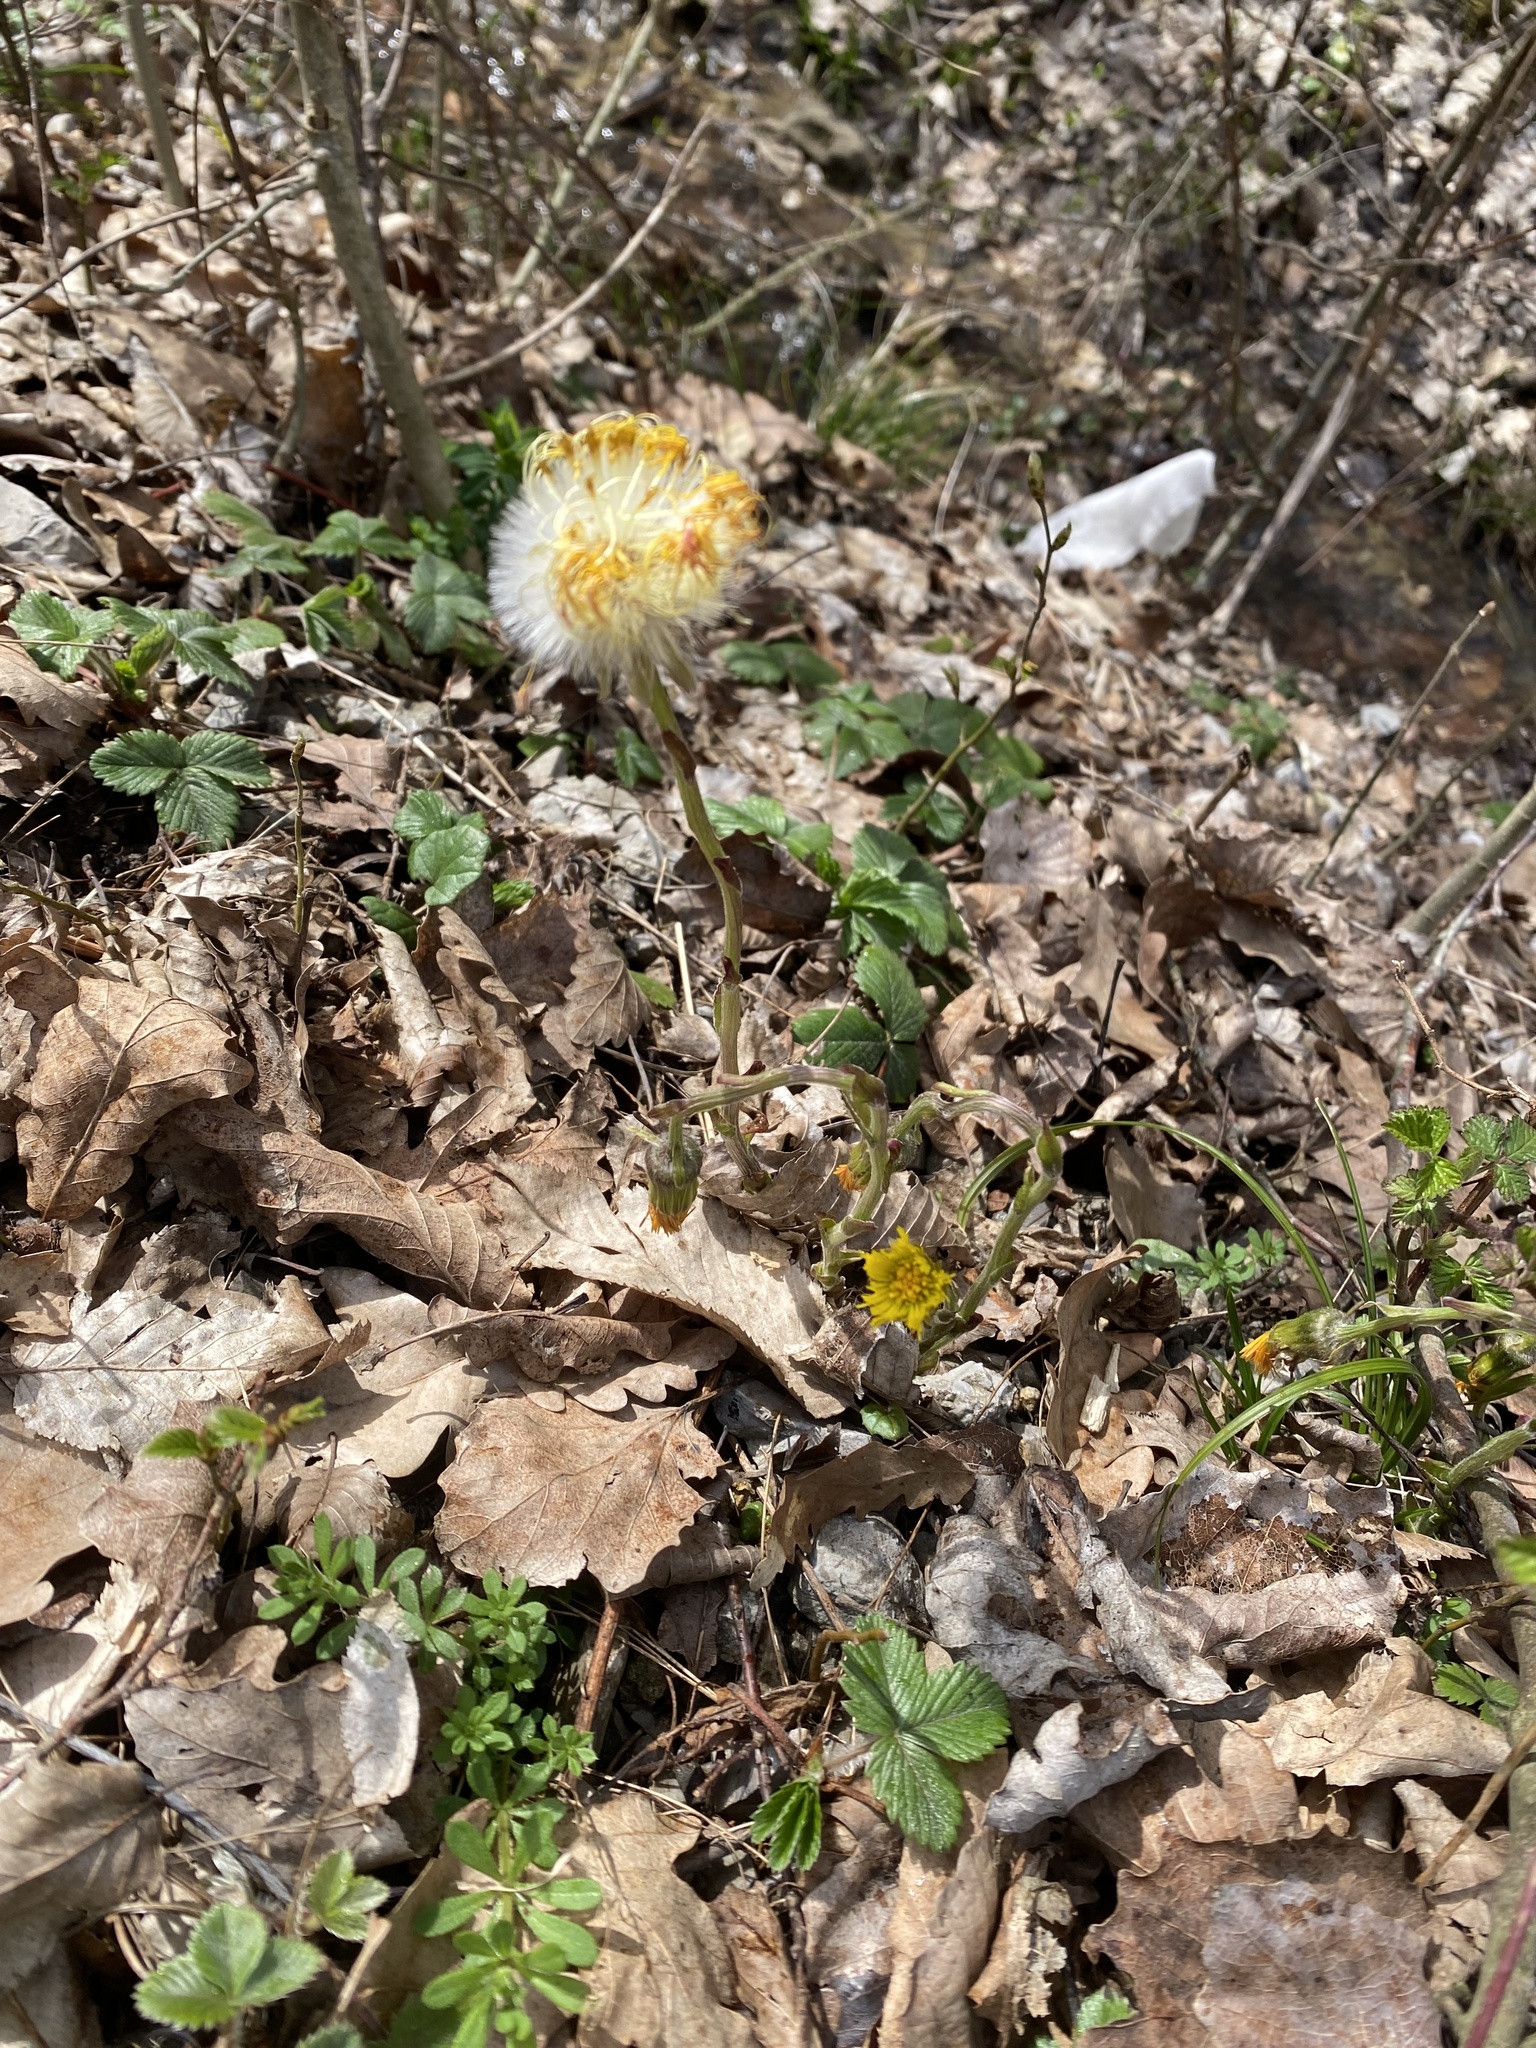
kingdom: Plantae
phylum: Tracheophyta
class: Magnoliopsida
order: Asterales
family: Asteraceae
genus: Tussilago
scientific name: Tussilago farfara
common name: Coltsfoot
